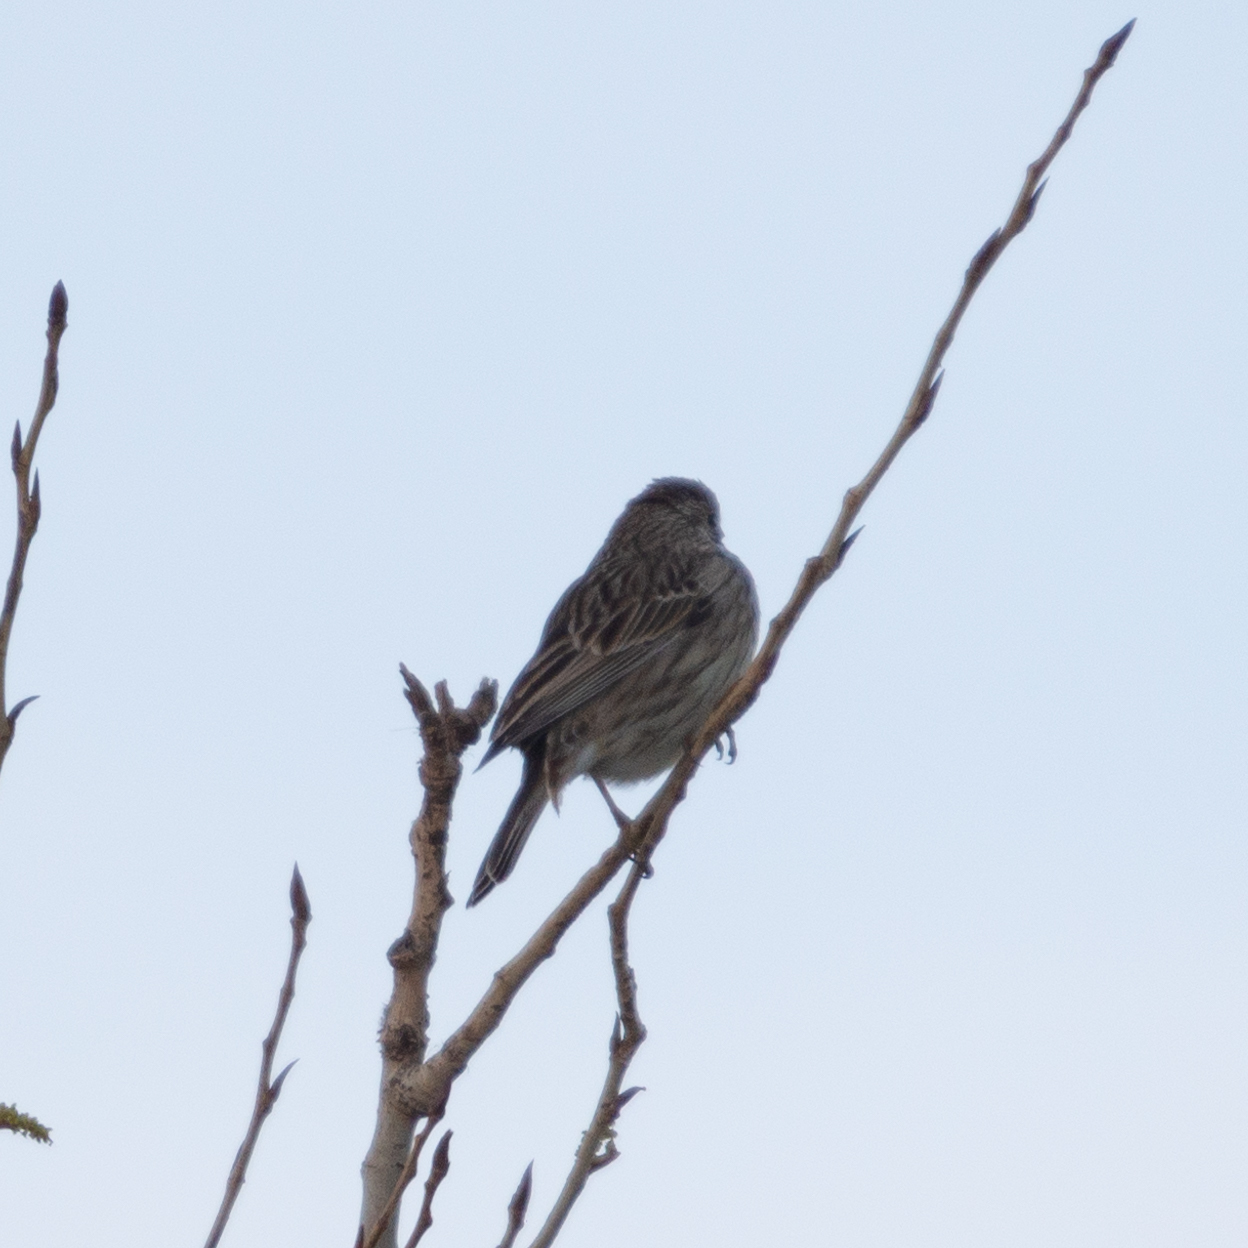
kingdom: Animalia
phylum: Chordata
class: Aves
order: Passeriformes
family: Emberizidae
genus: Emberiza
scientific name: Emberiza calandra
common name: Corn bunting
